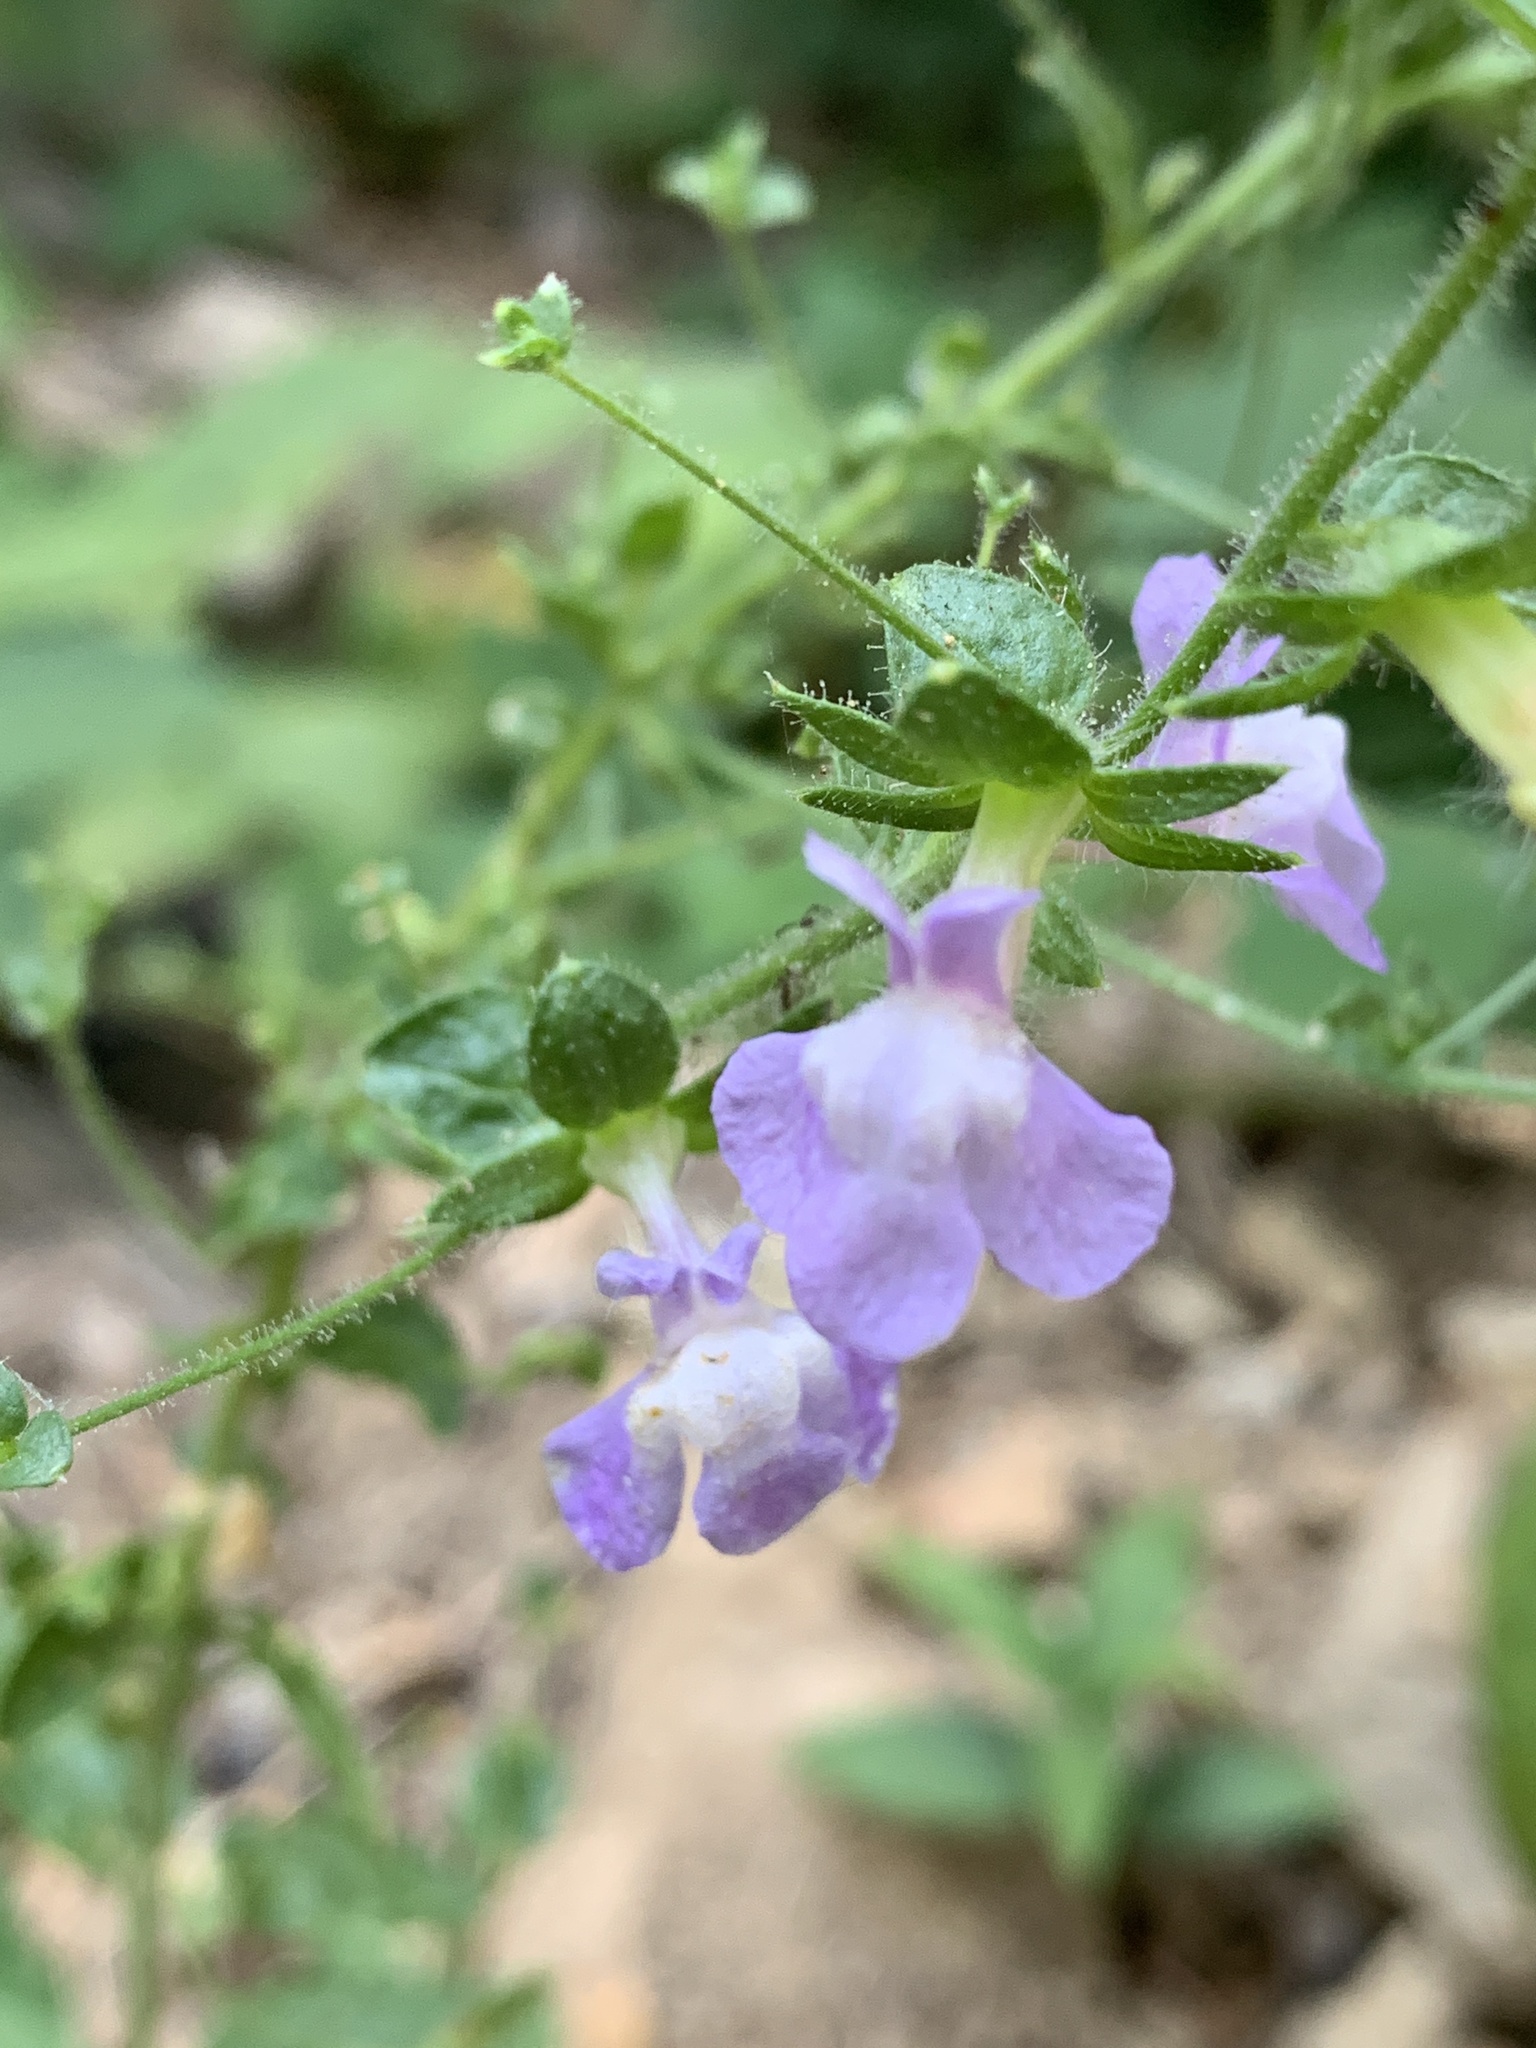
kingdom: Plantae
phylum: Tracheophyta
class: Magnoliopsida
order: Lamiales
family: Plantaginaceae
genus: Sairocarpus
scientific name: Sairocarpus vexillocalyculatus
